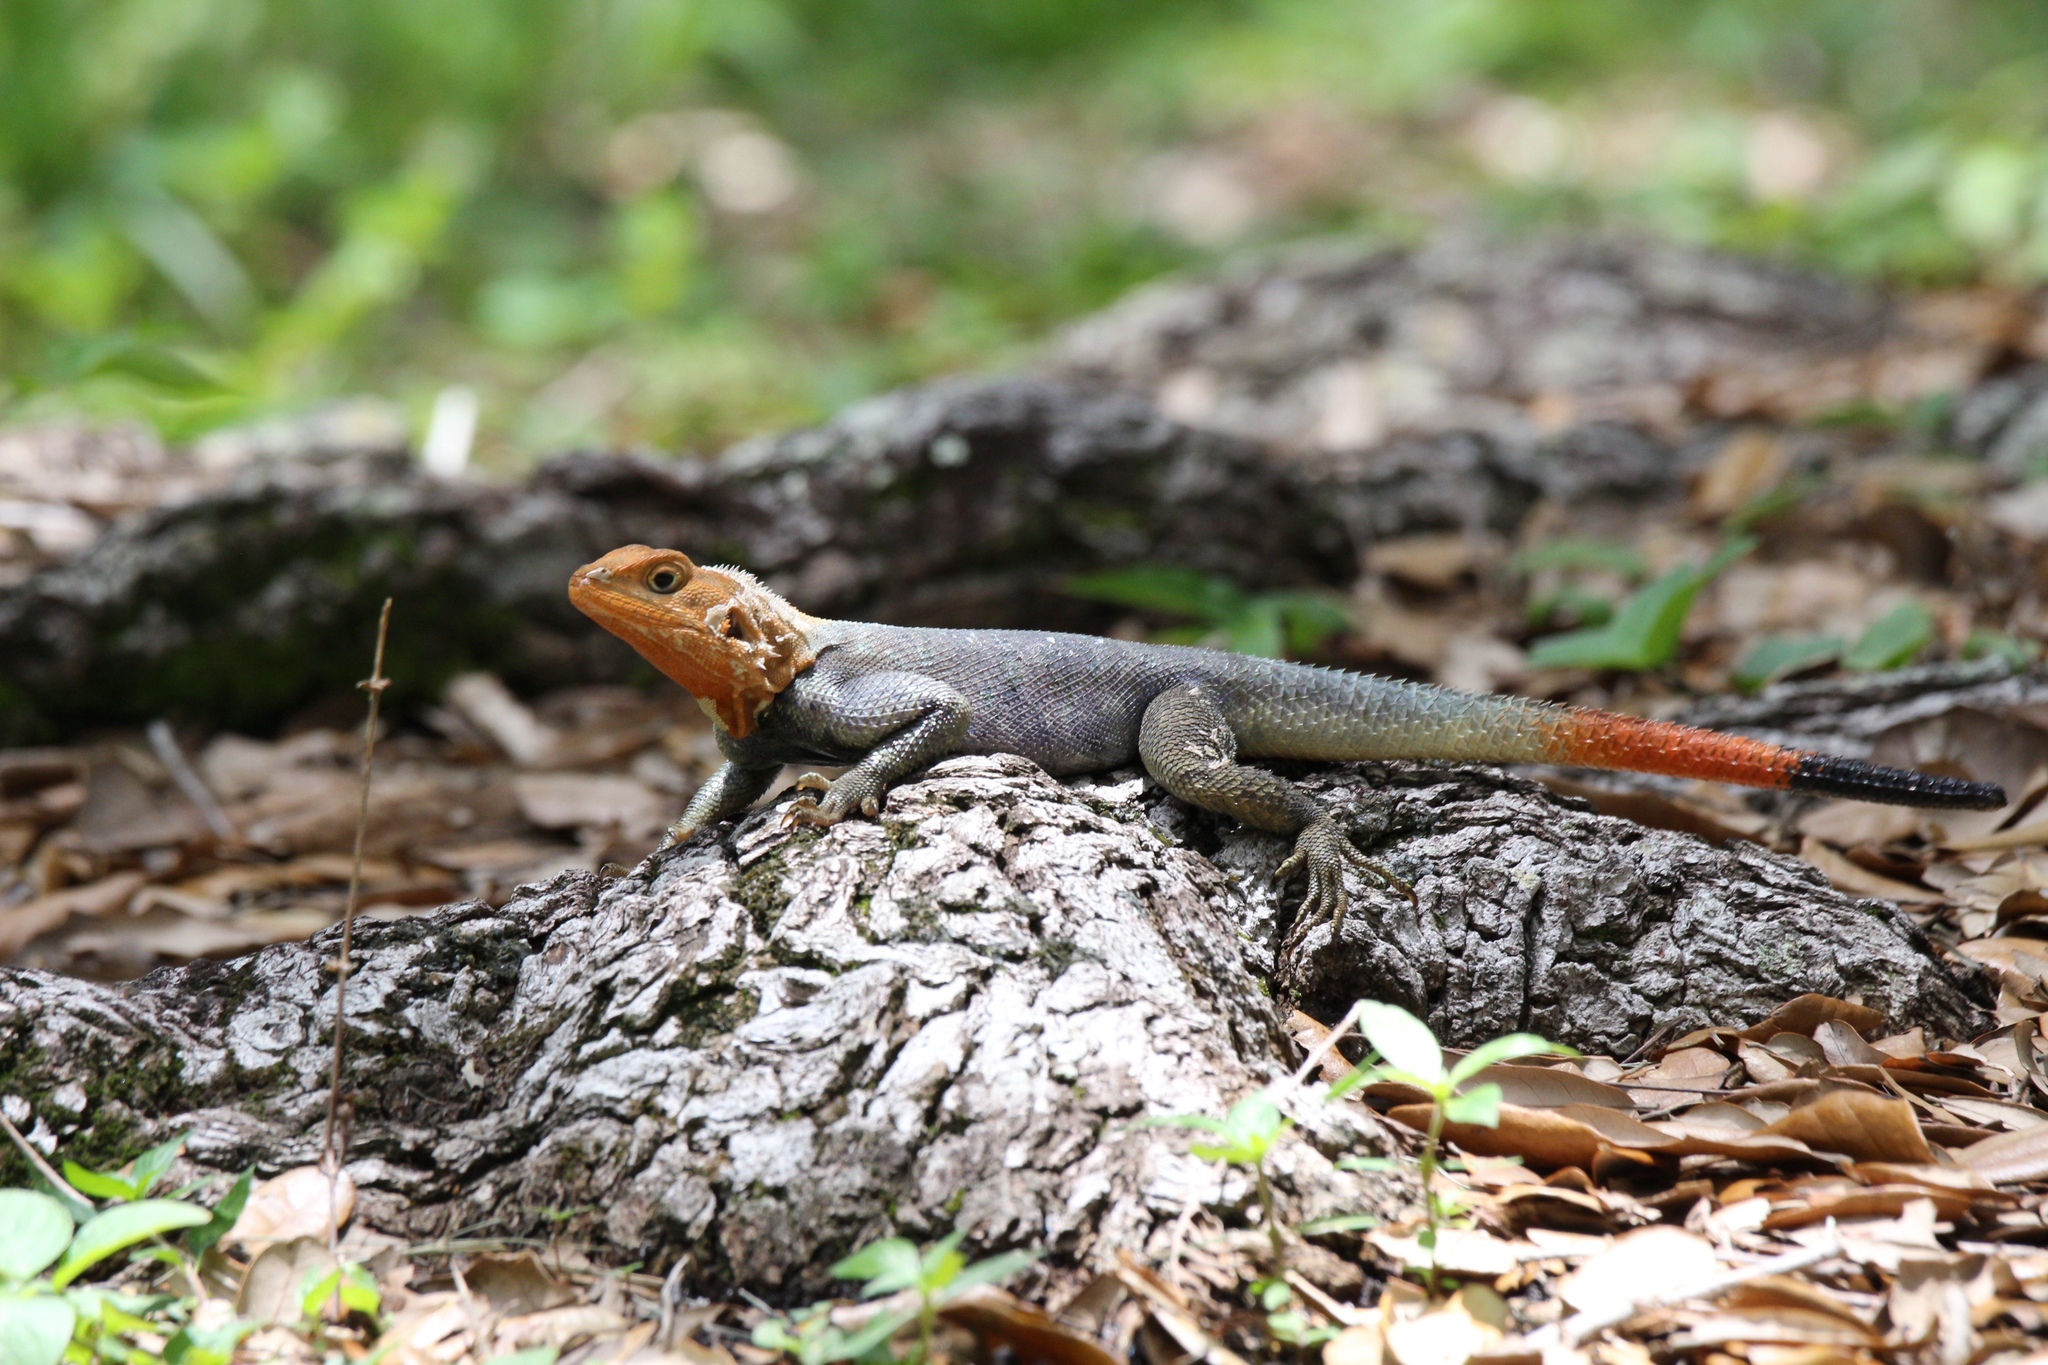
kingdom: Animalia
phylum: Chordata
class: Squamata
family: Agamidae
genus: Agama
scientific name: Agama picticauda
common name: Red-headed agama
